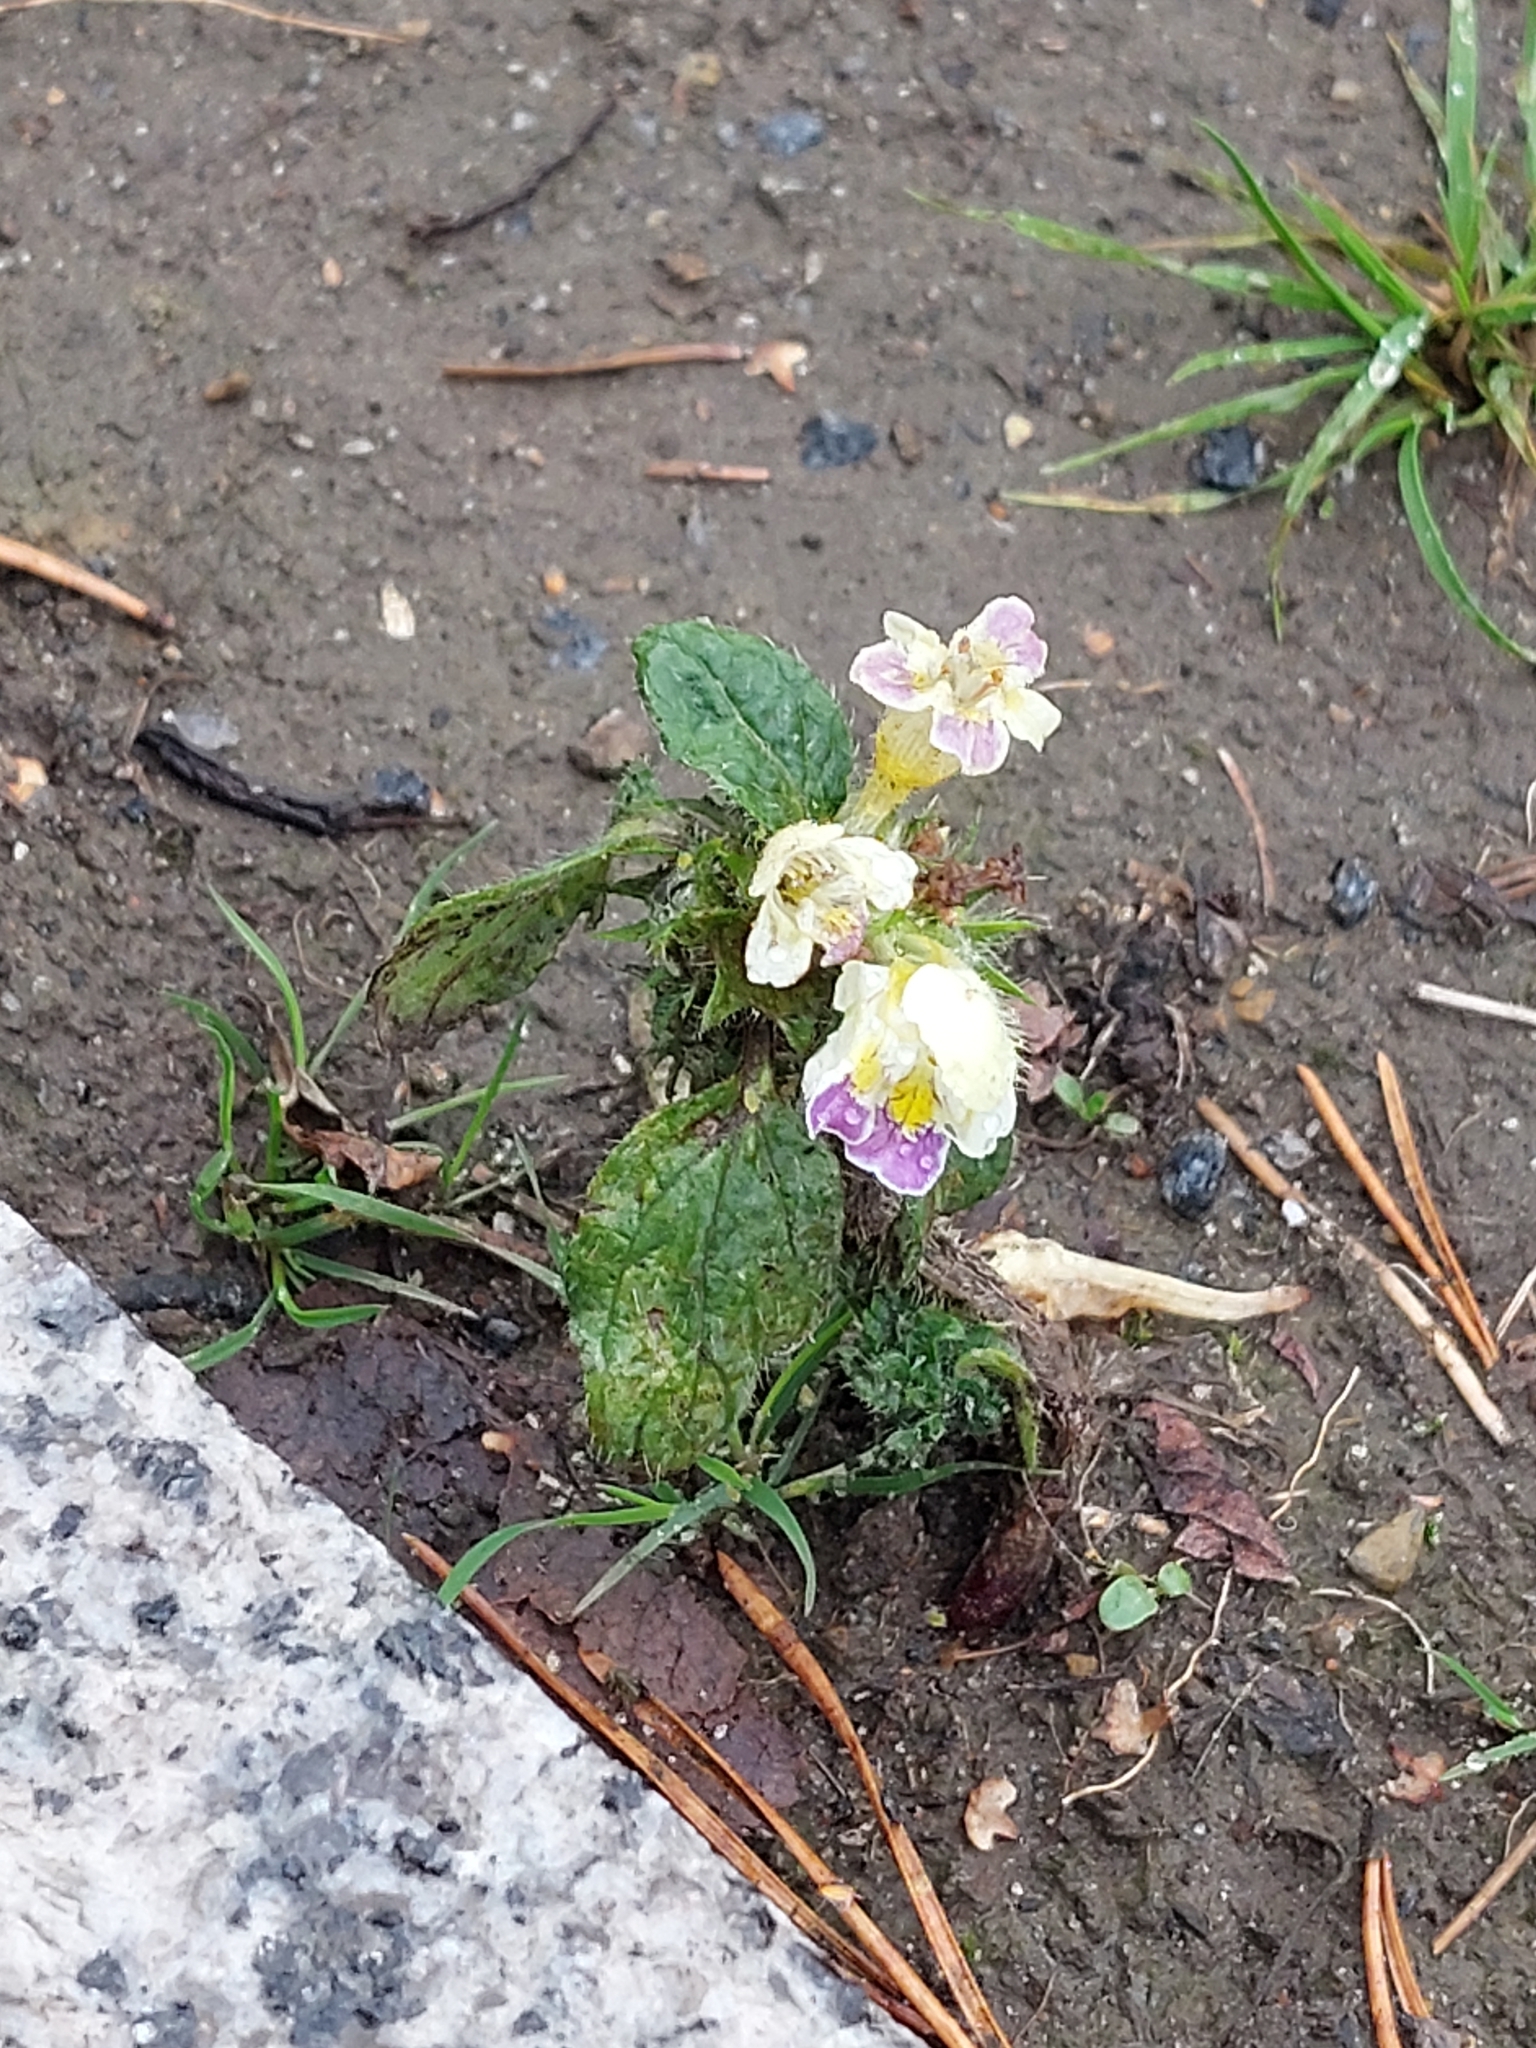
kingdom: Plantae
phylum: Tracheophyta
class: Magnoliopsida
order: Lamiales
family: Lamiaceae
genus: Galeopsis
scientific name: Galeopsis speciosa
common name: Large-flowered hemp-nettle
